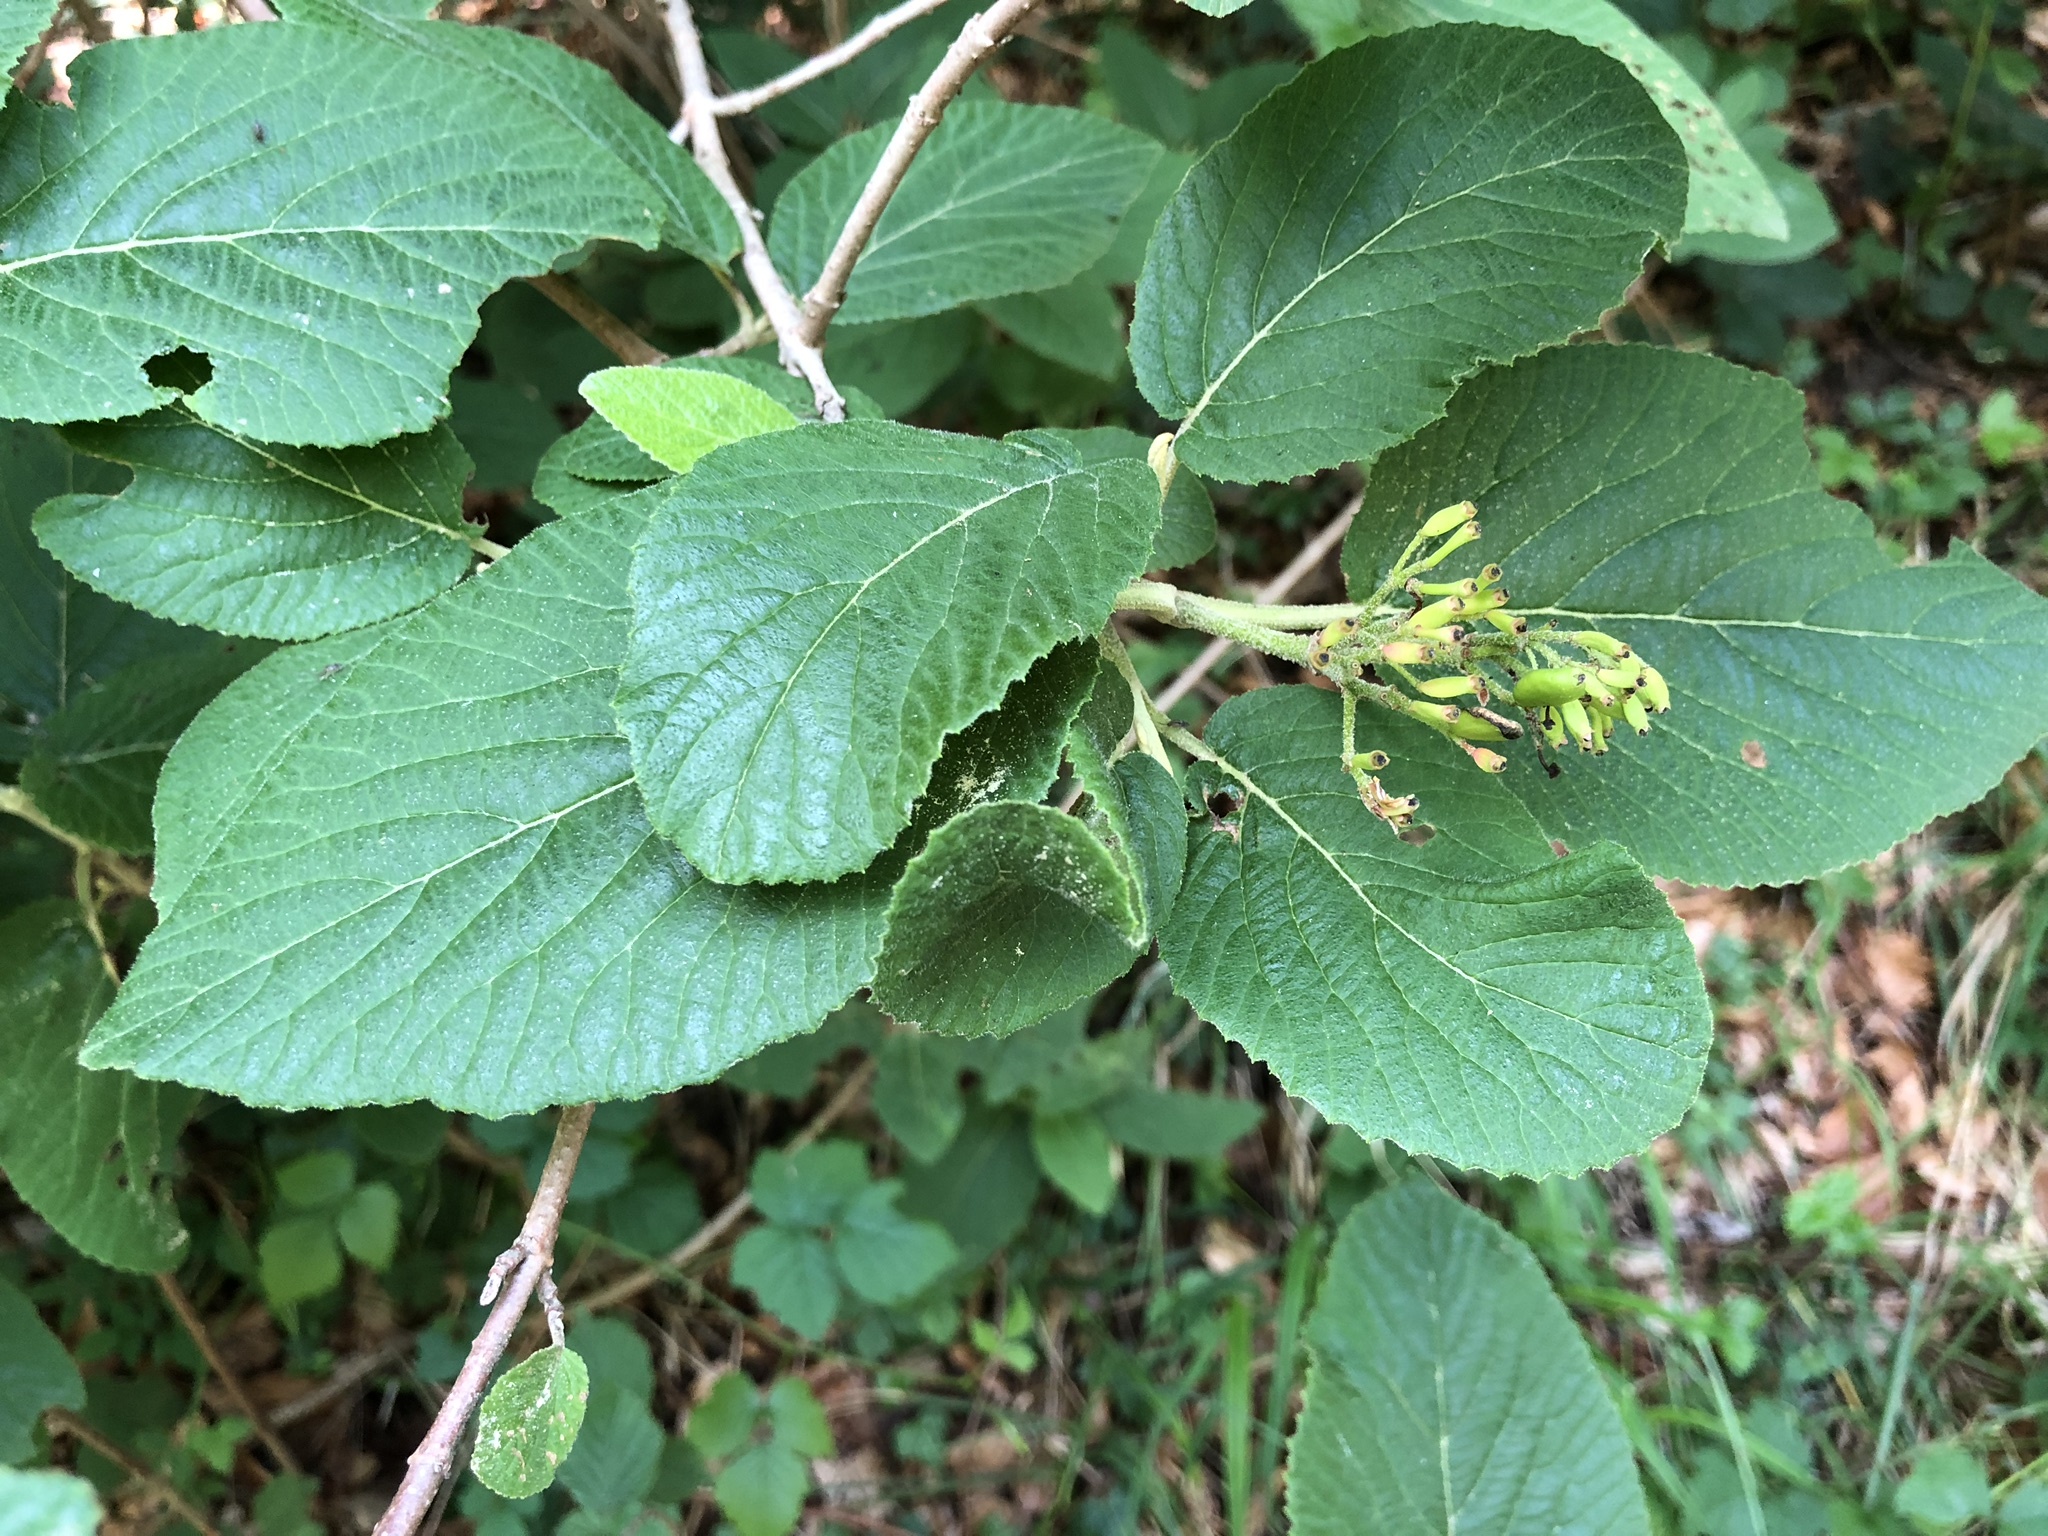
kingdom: Plantae
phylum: Tracheophyta
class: Magnoliopsida
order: Dipsacales
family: Viburnaceae
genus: Viburnum
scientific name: Viburnum lantana
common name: Wayfaring tree
